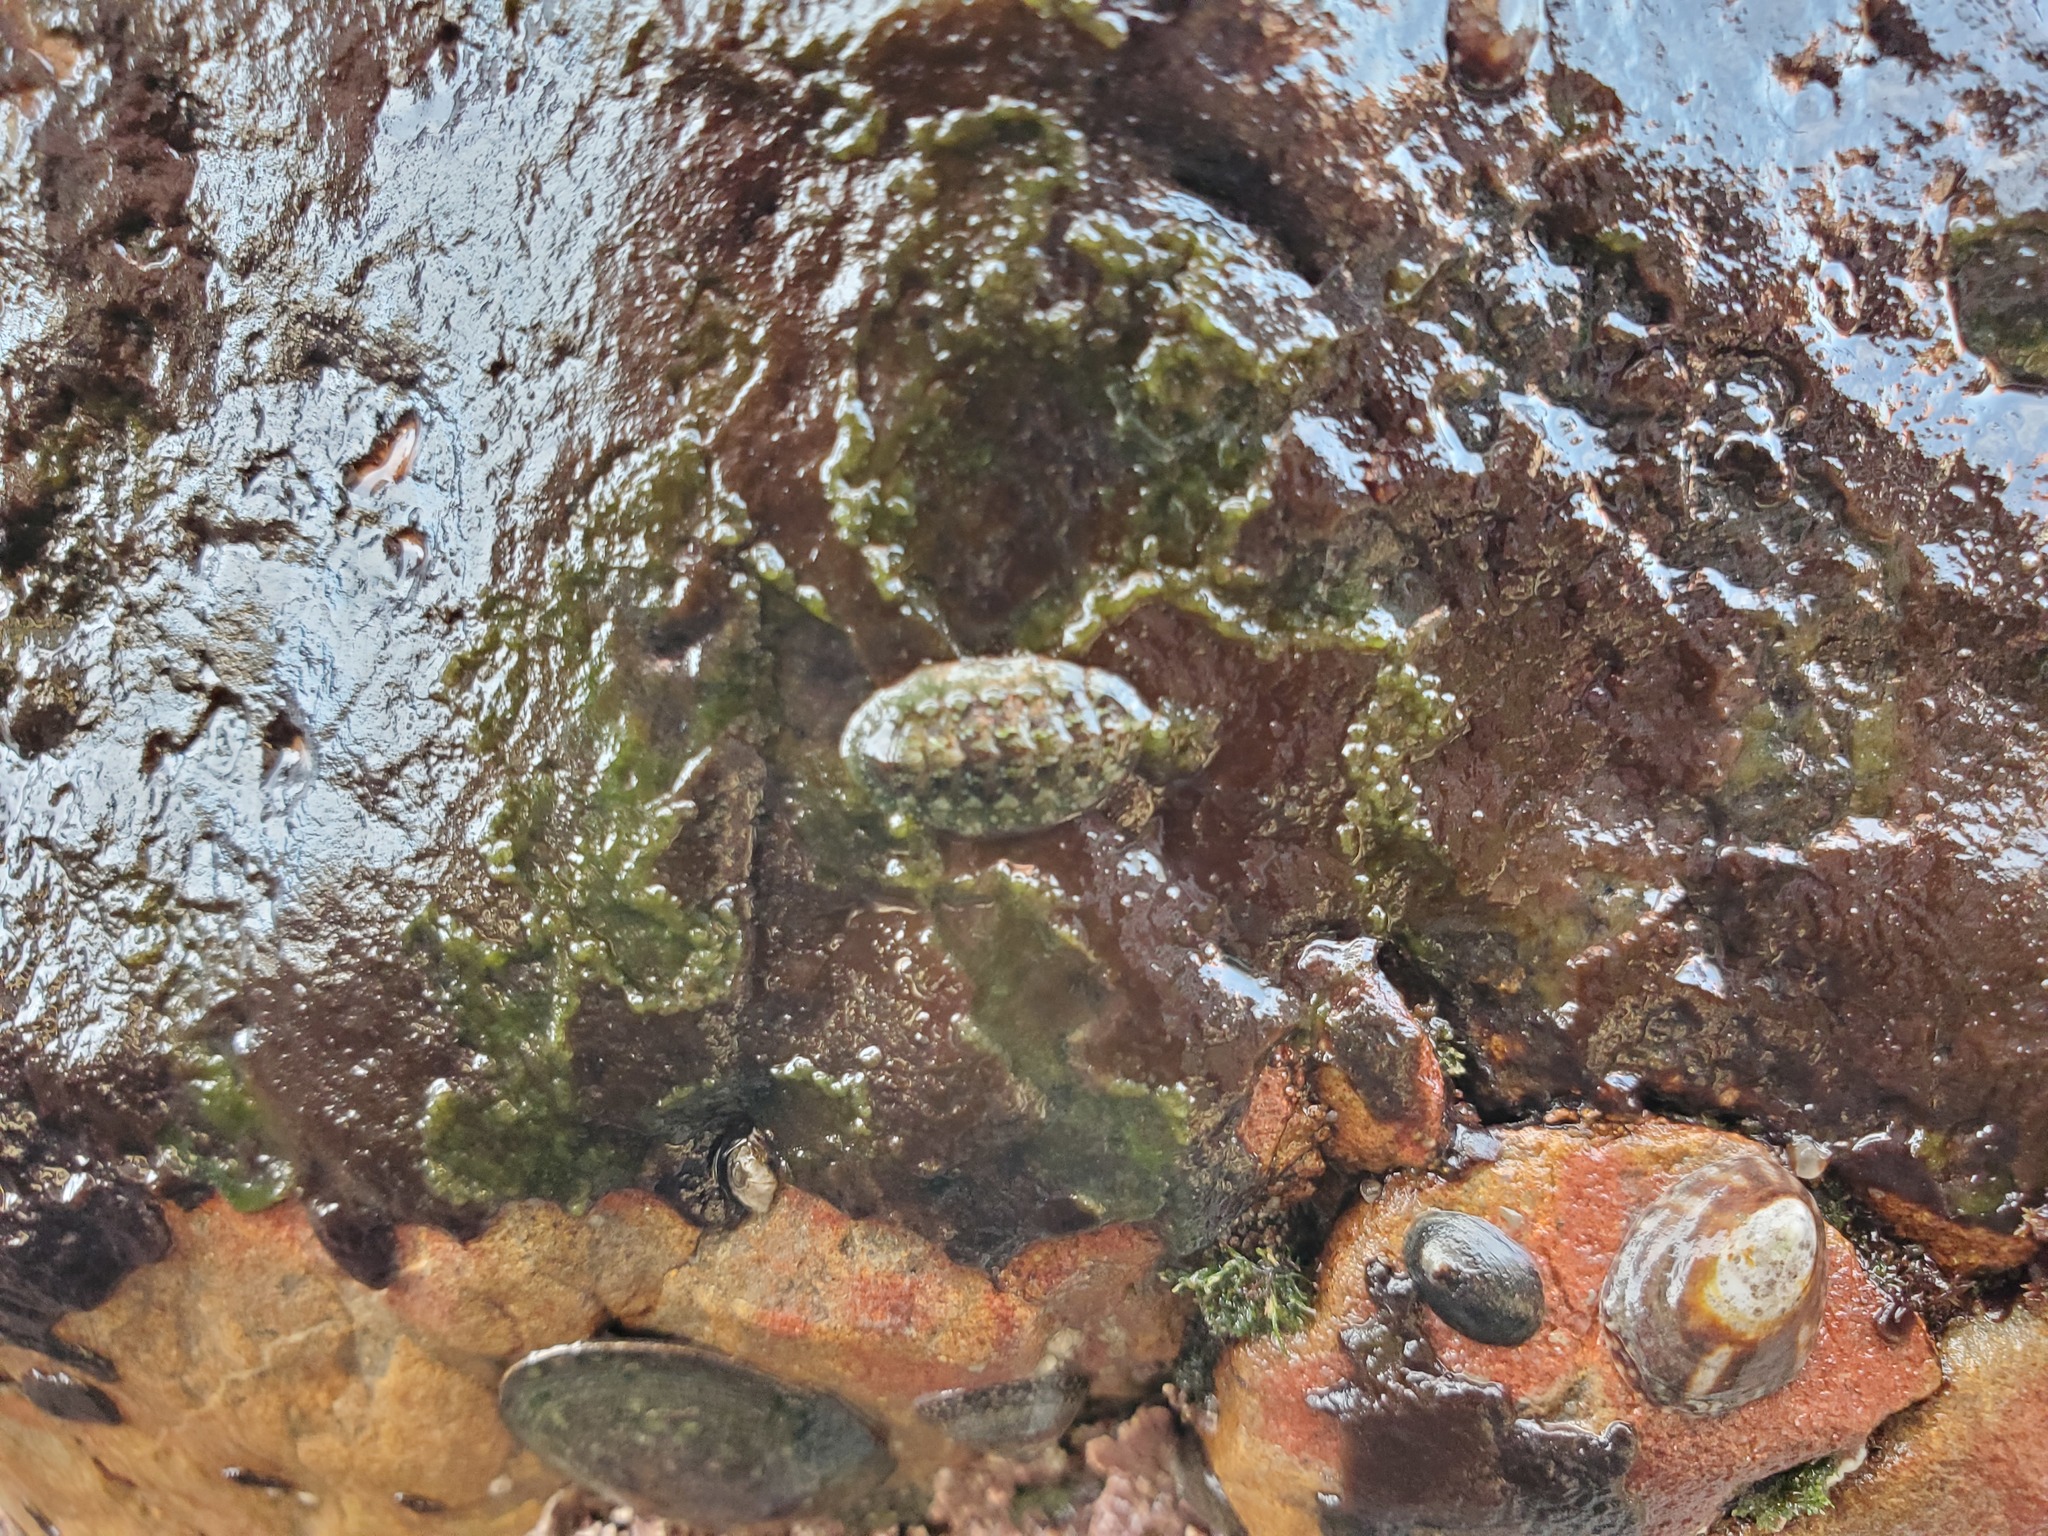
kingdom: Animalia
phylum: Mollusca
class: Polyplacophora
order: Chitonida
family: Tonicellidae
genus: Cyanoplax
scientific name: Cyanoplax dentiens
